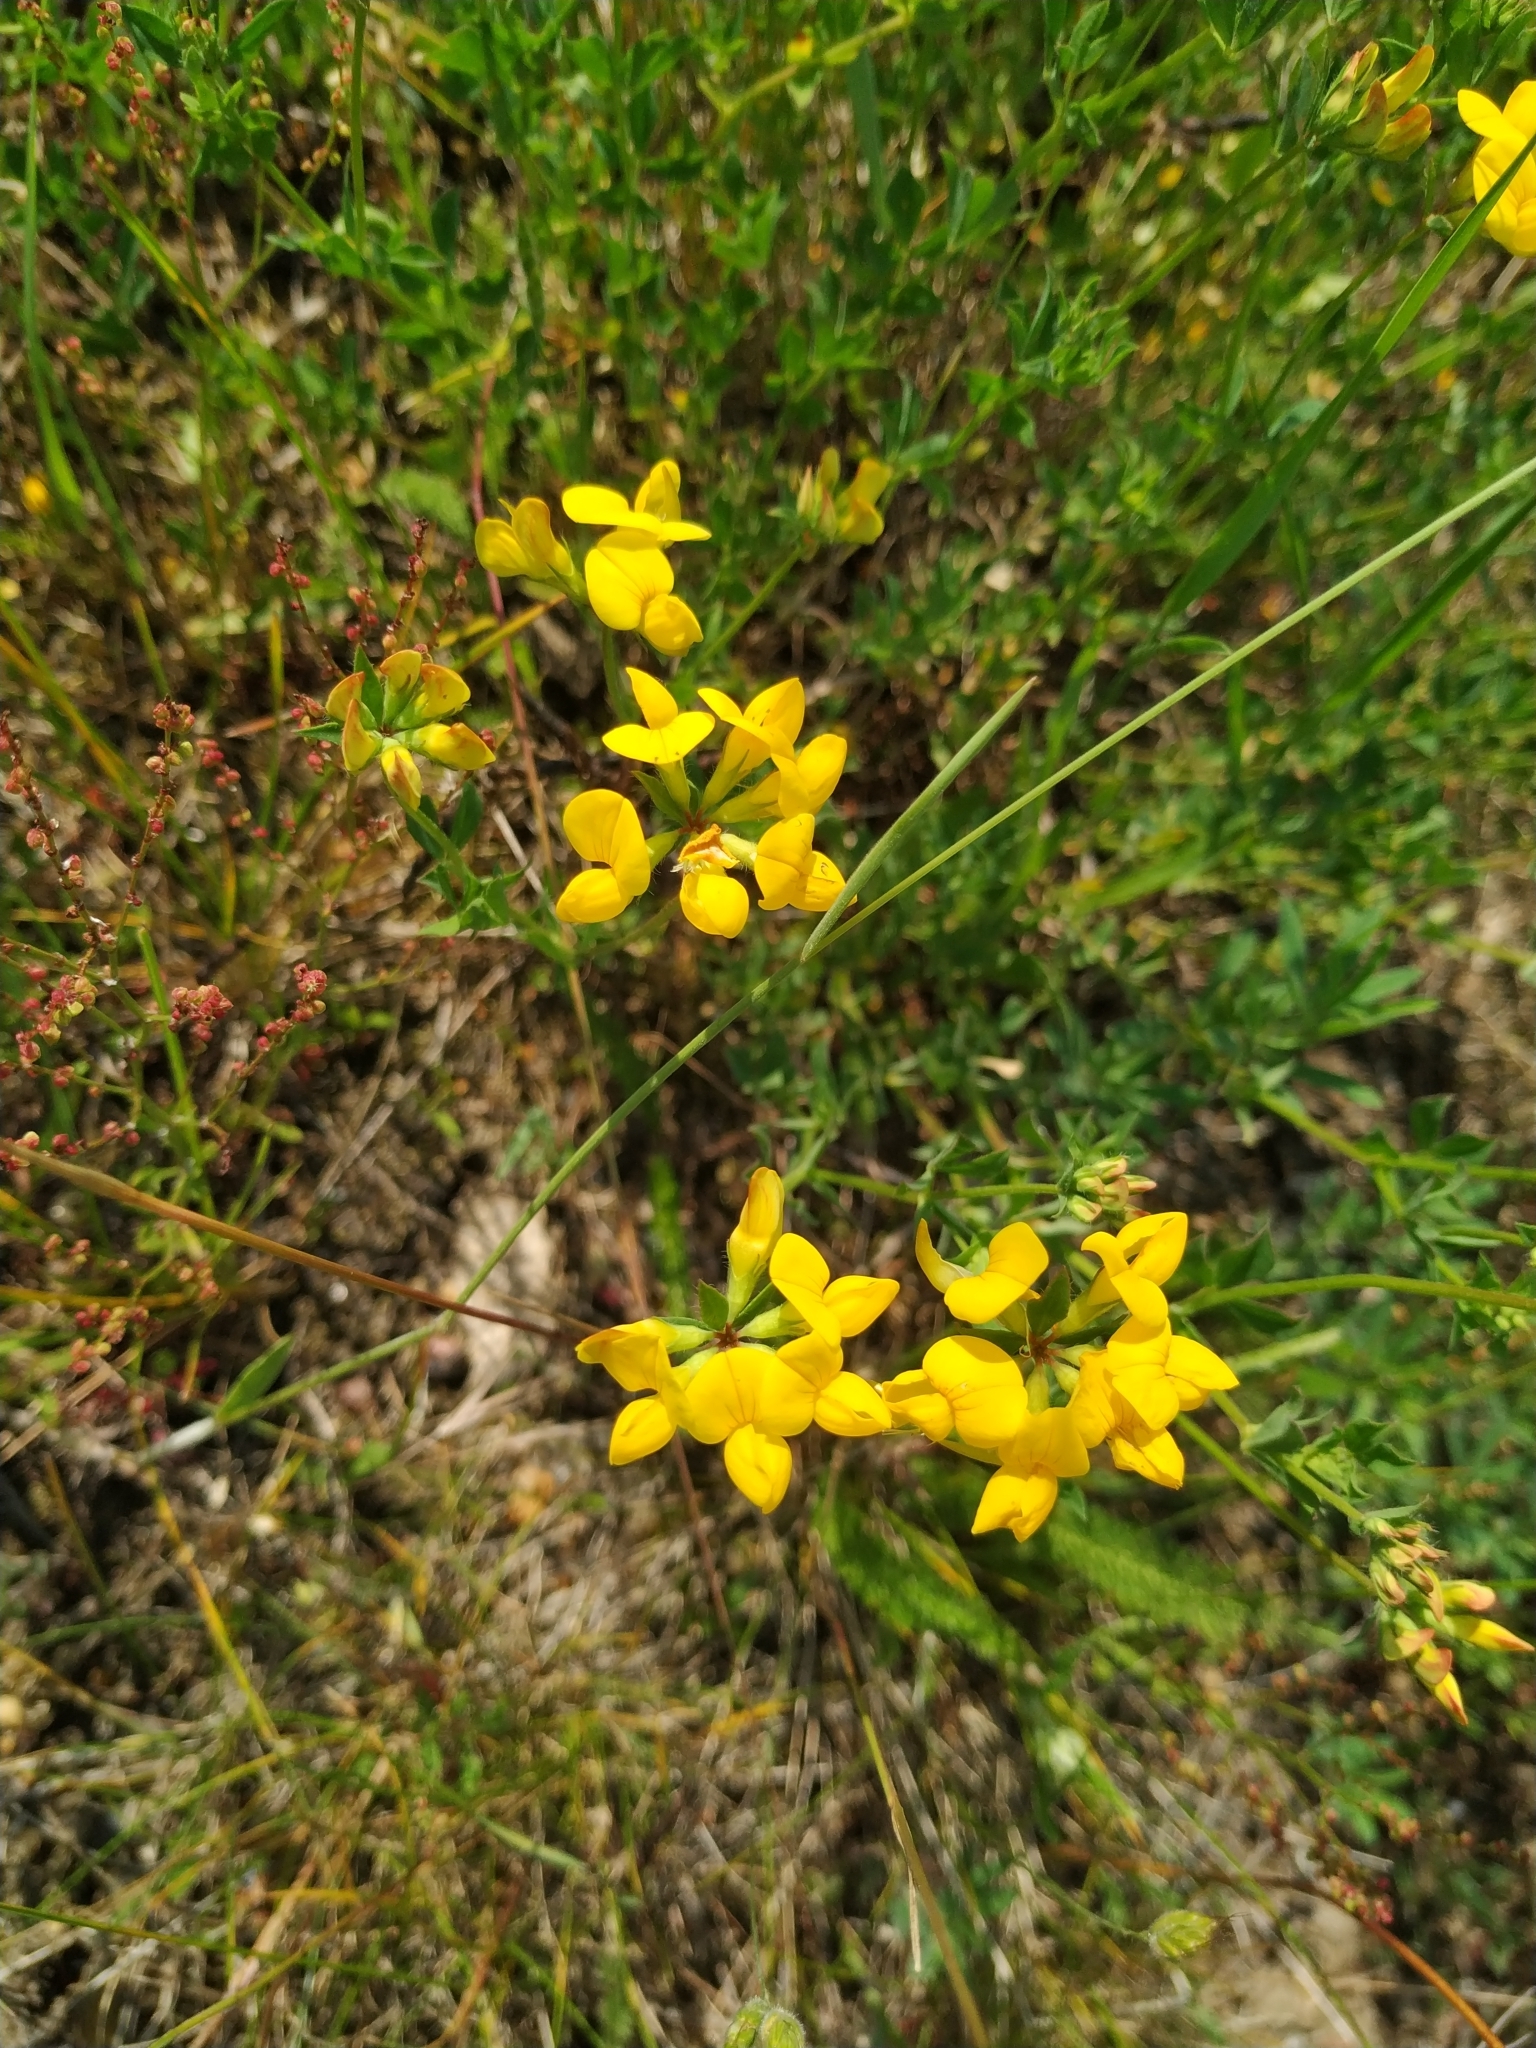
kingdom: Plantae
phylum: Tracheophyta
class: Magnoliopsida
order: Fabales
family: Fabaceae
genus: Lotus
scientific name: Lotus corniculatus
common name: Common bird's-foot-trefoil
